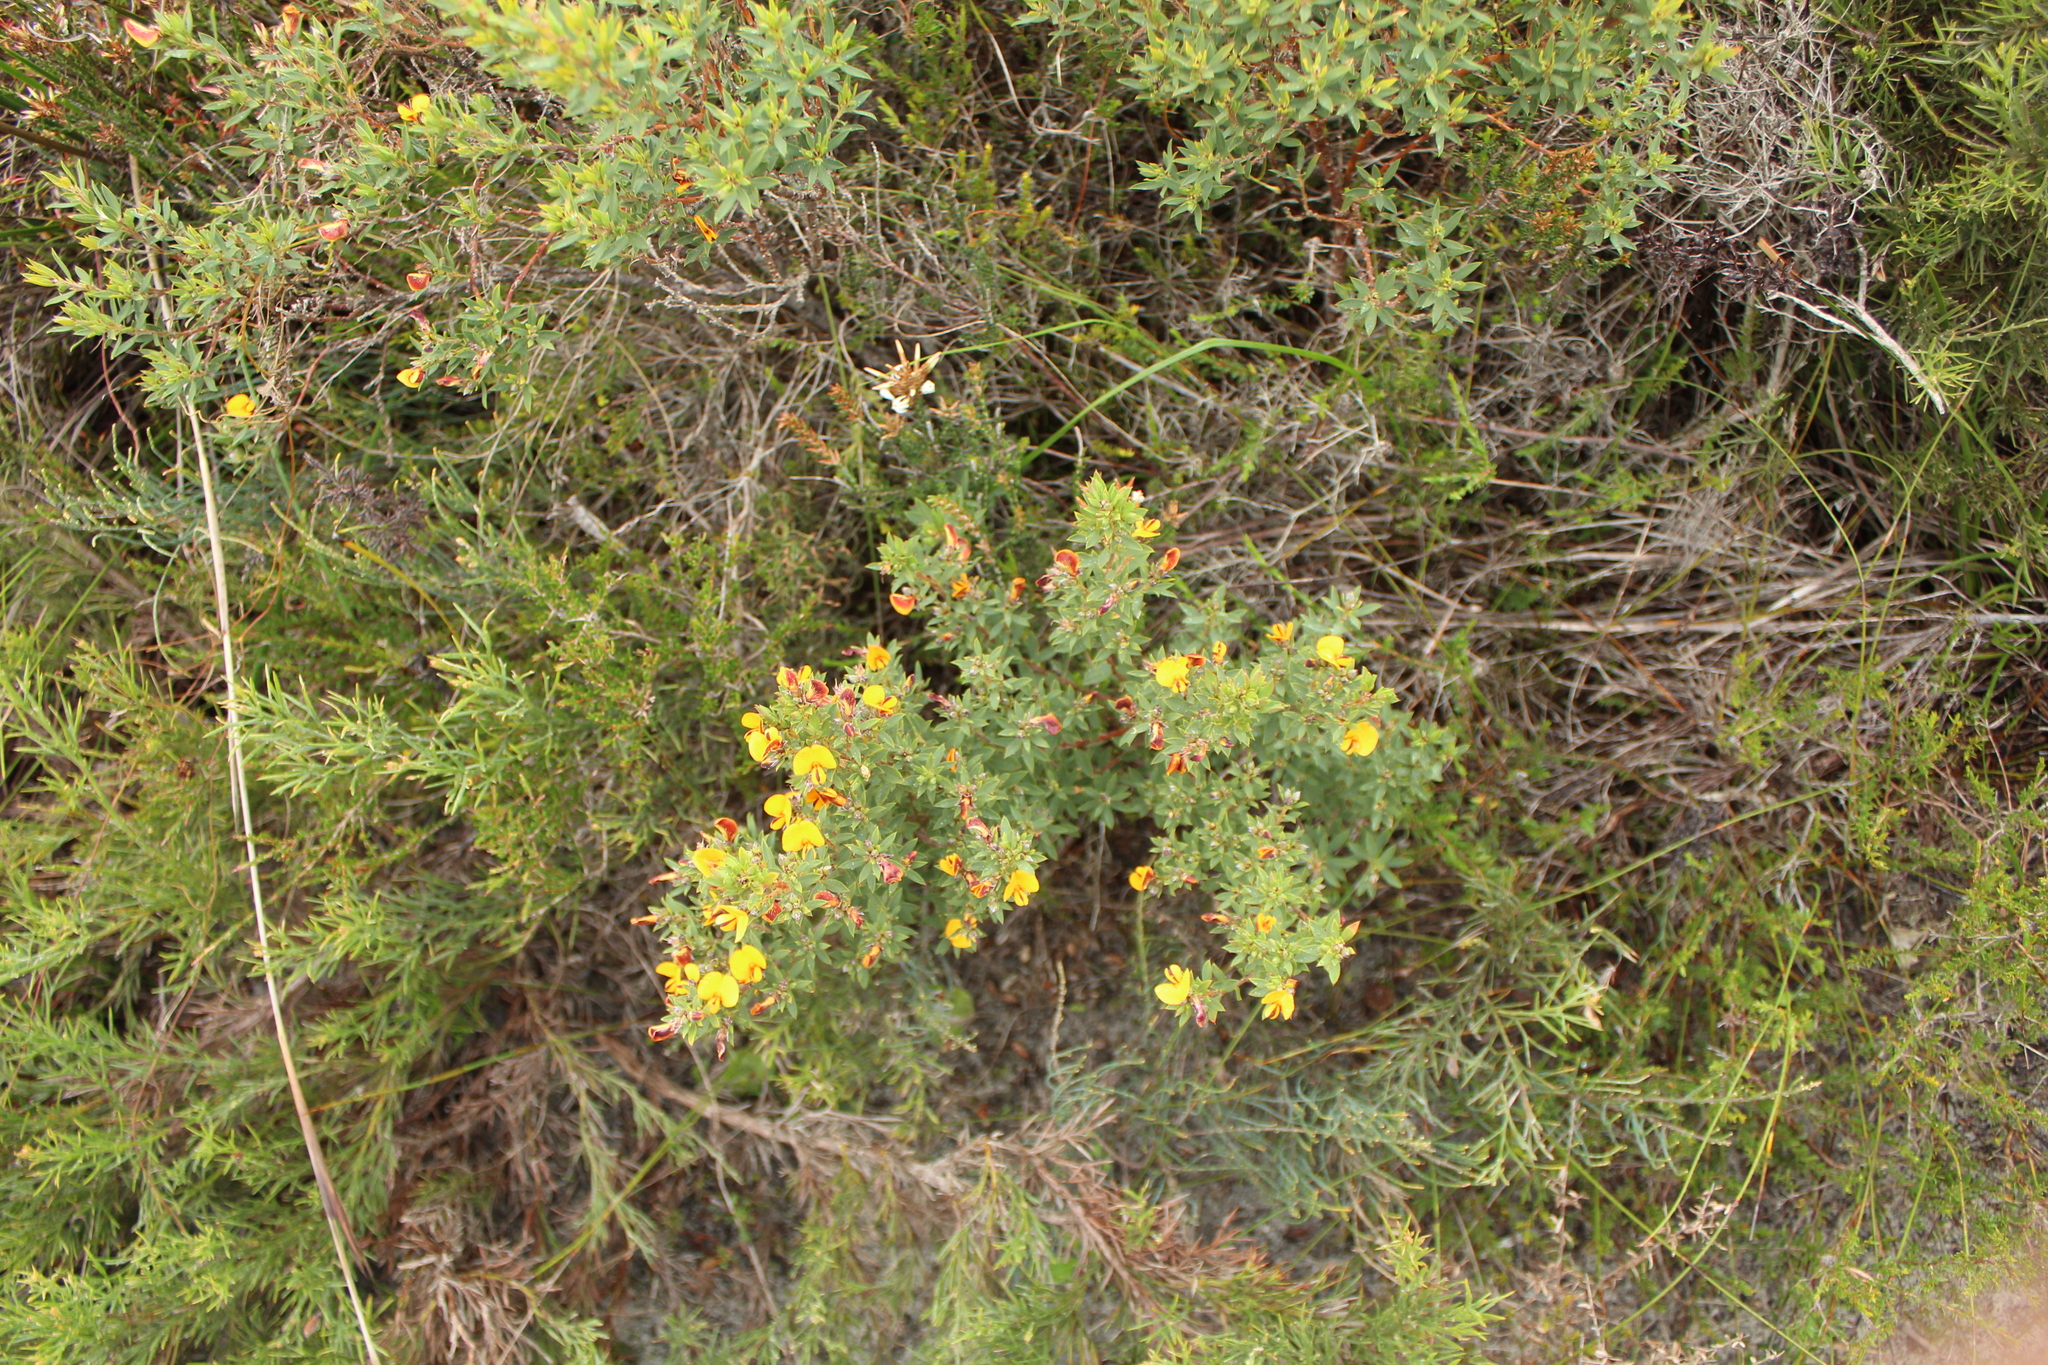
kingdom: Plantae
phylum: Tracheophyta
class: Magnoliopsida
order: Fabales
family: Fabaceae
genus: Pultenaea
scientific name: Pultenaea reticulata
